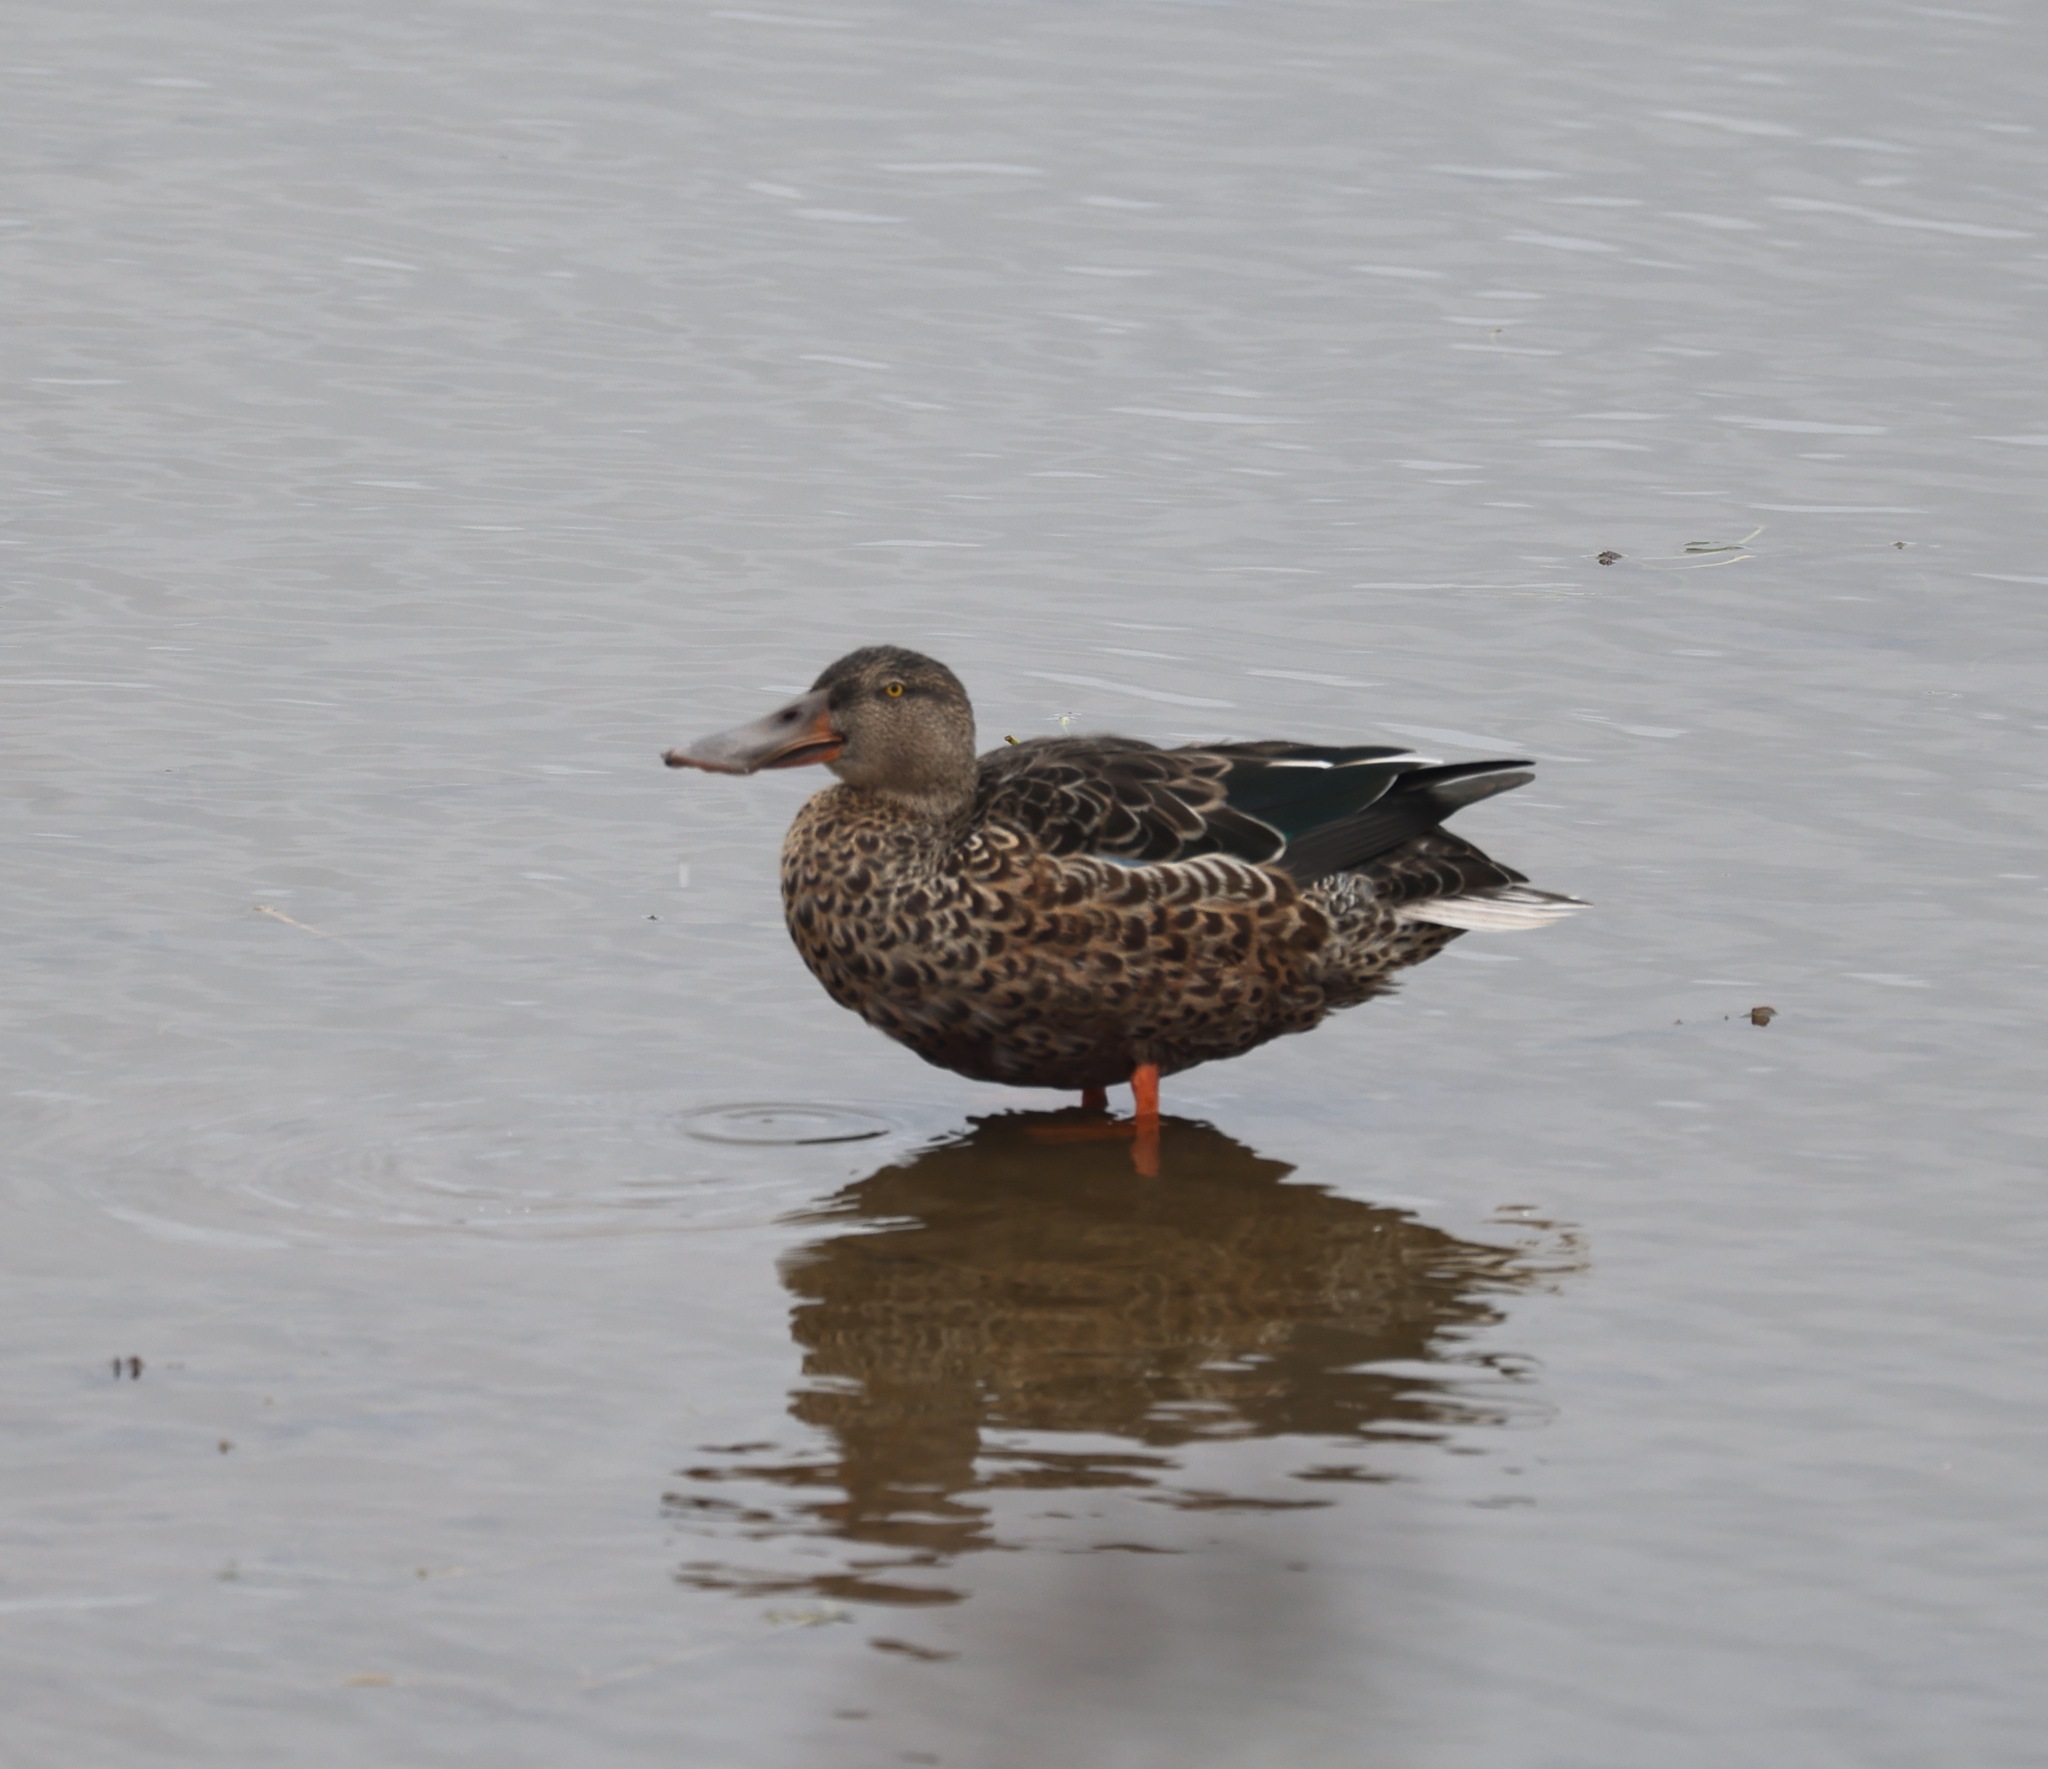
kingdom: Animalia
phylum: Chordata
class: Aves
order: Anseriformes
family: Anatidae
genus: Spatula
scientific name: Spatula clypeata
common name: Northern shoveler
